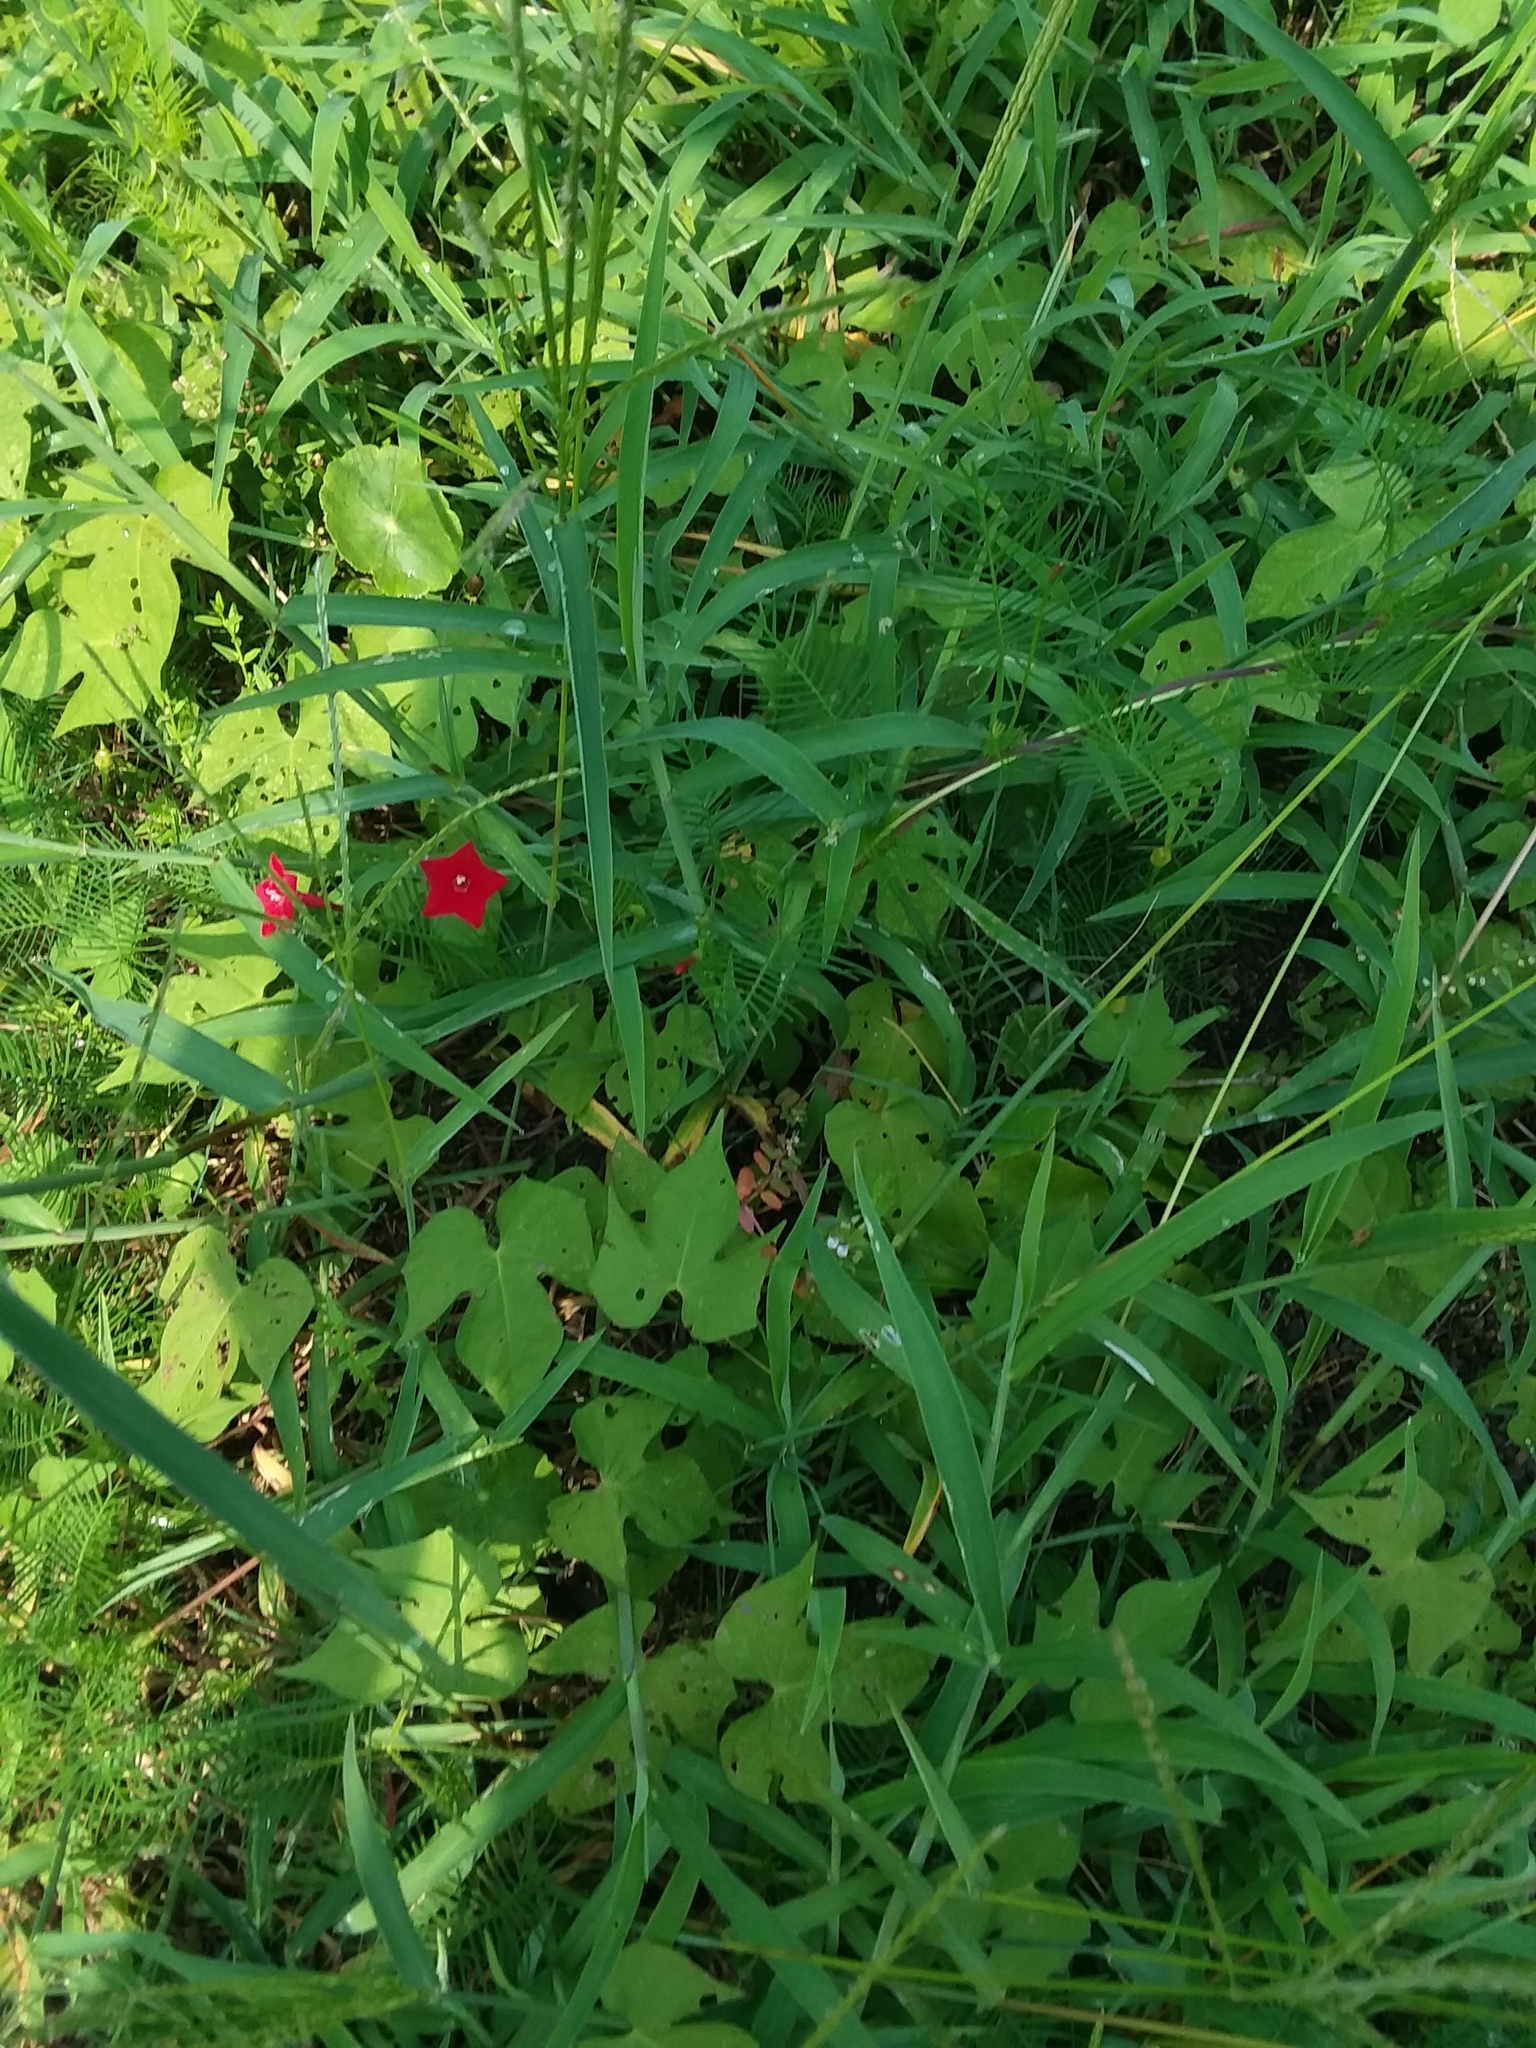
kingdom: Plantae
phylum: Tracheophyta
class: Magnoliopsida
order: Solanales
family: Convolvulaceae
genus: Ipomoea
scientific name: Ipomoea quamoclit
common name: Cypress vine
